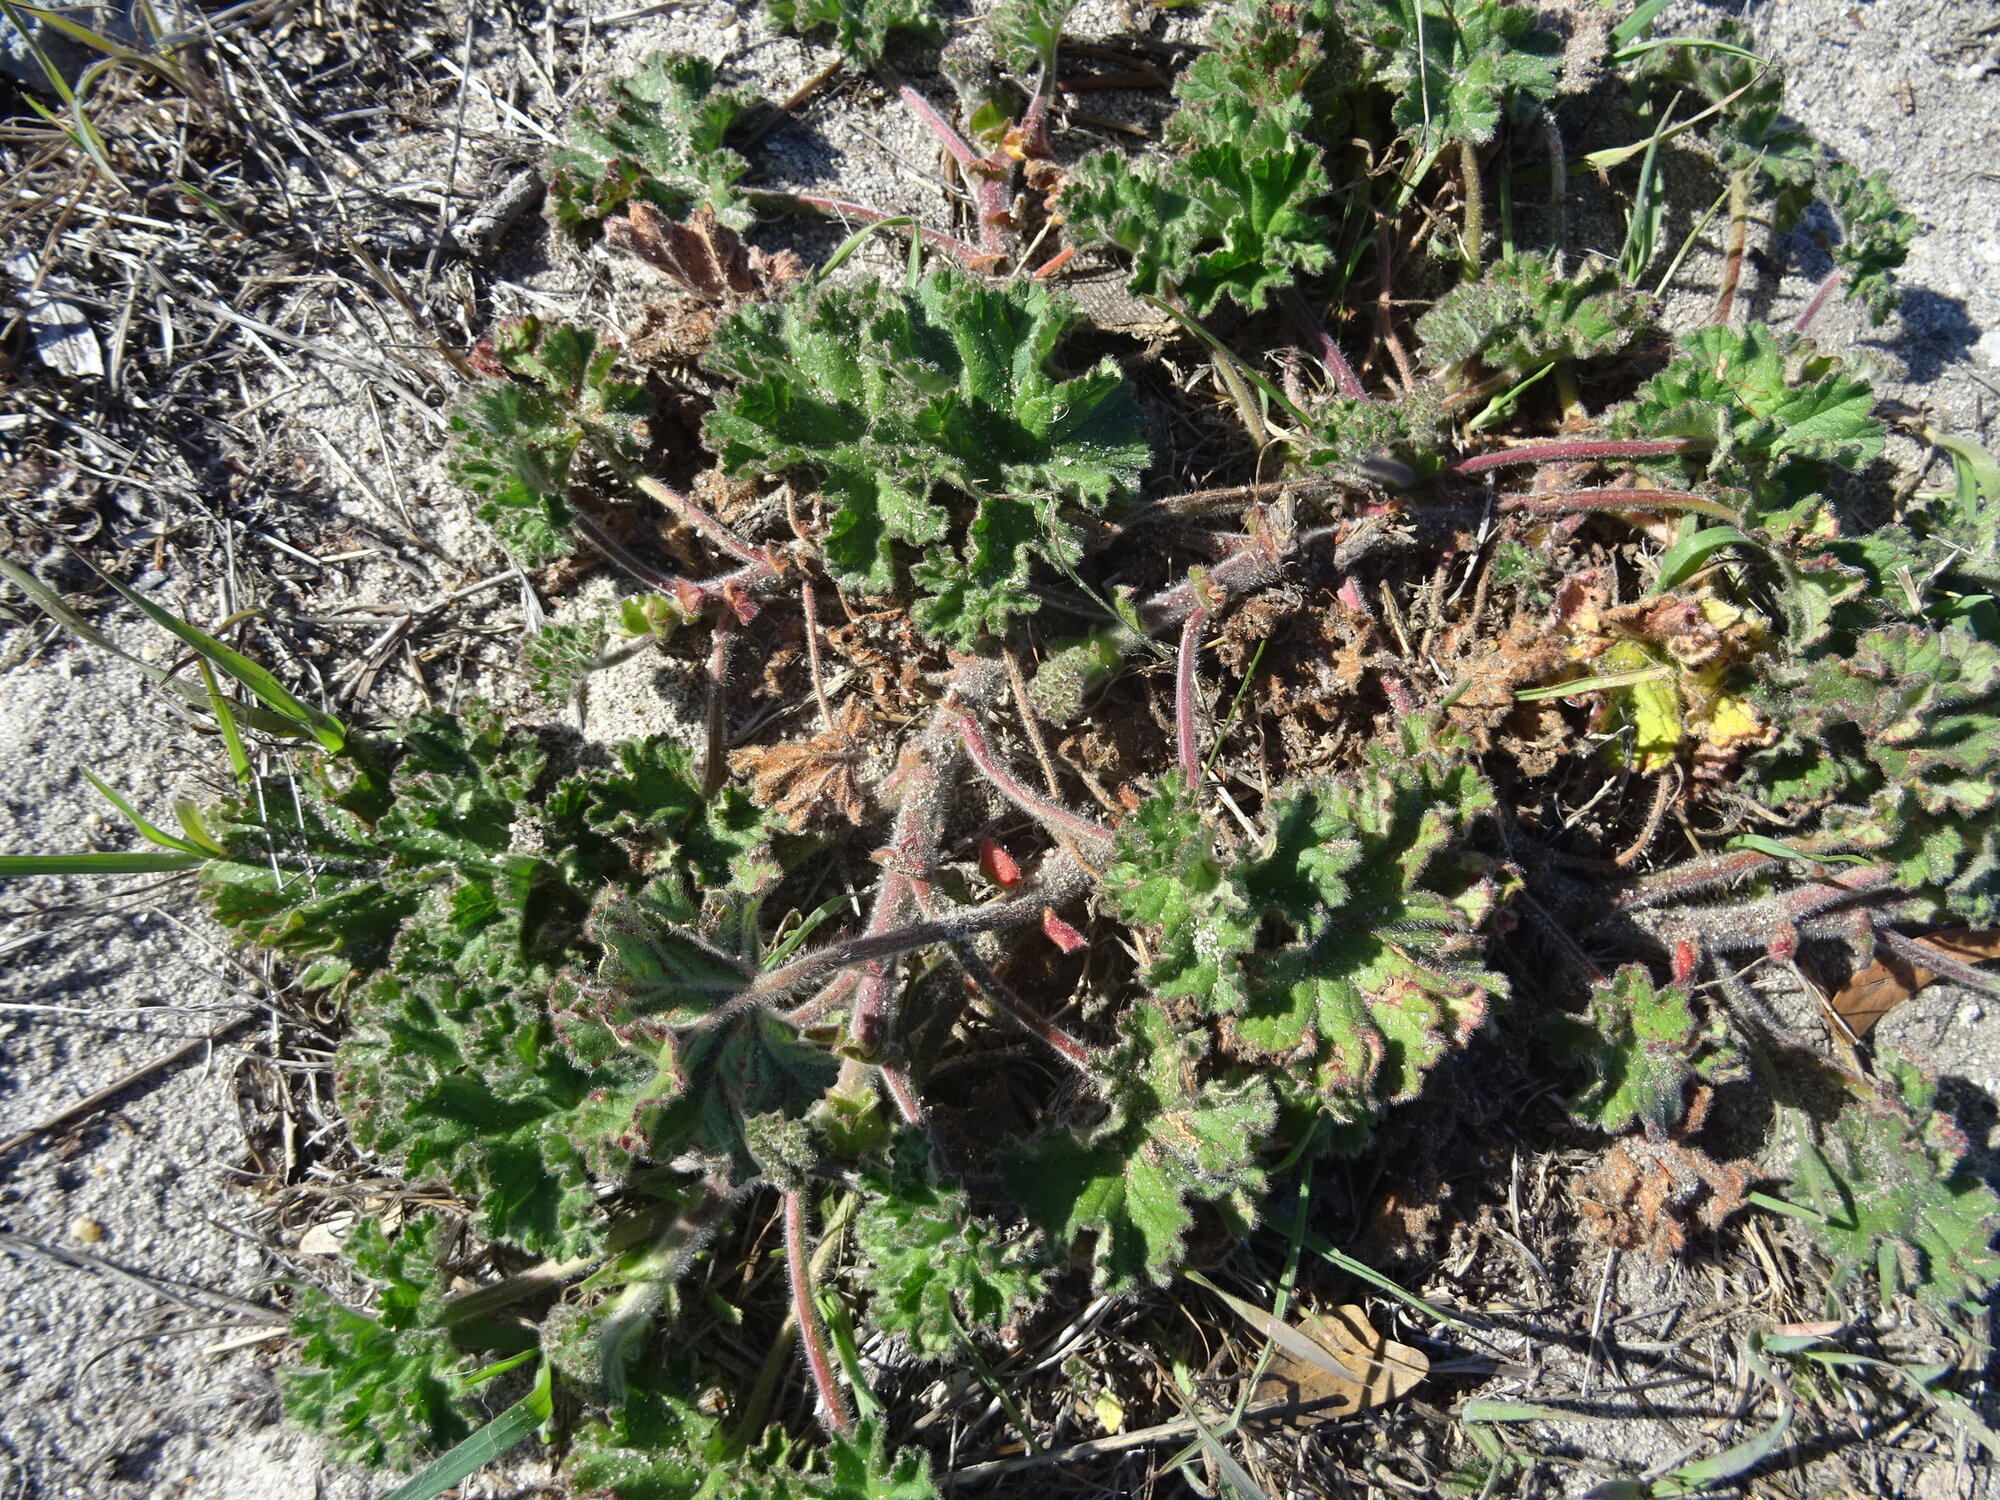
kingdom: Plantae
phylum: Tracheophyta
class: Magnoliopsida
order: Geraniales
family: Geraniaceae
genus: Pelargonium
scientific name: Pelargonium capitatum
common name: Rose scented geranium
